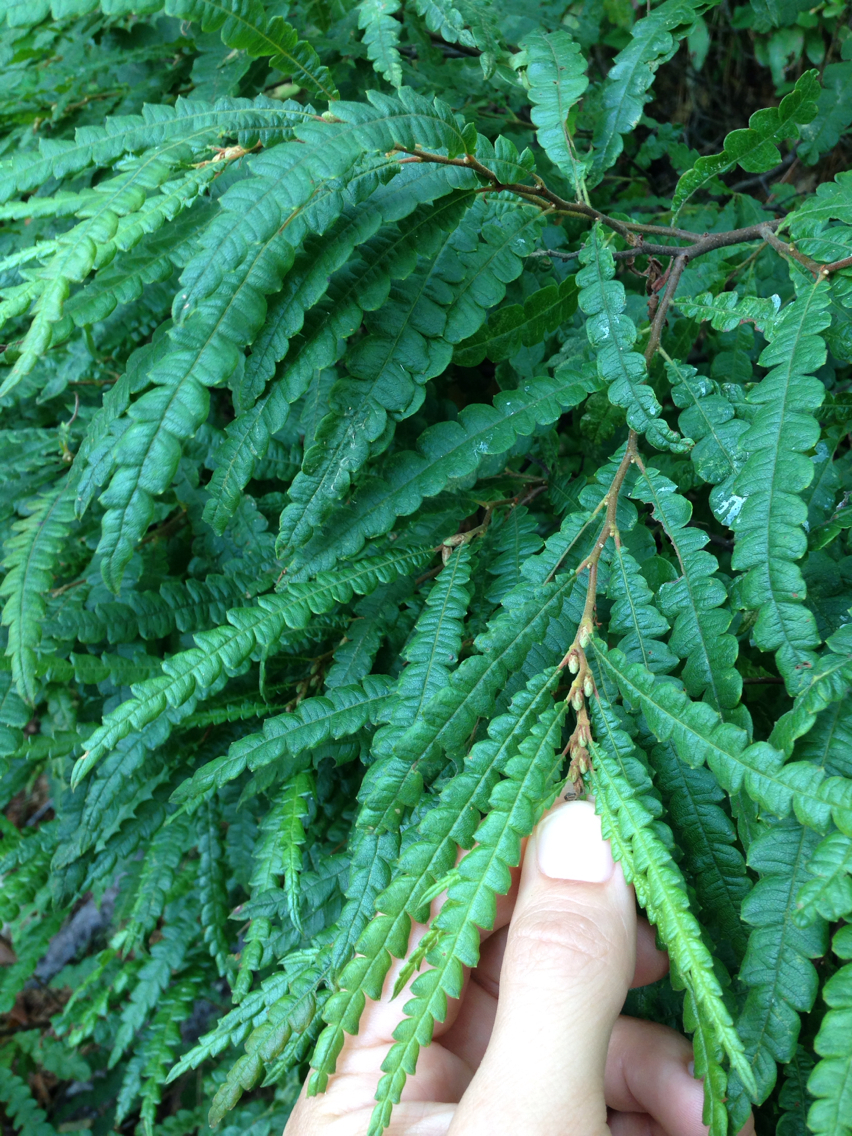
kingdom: Plantae
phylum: Tracheophyta
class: Magnoliopsida
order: Fagales
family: Myricaceae
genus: Comptonia
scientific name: Comptonia peregrina
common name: Sweet-fern
